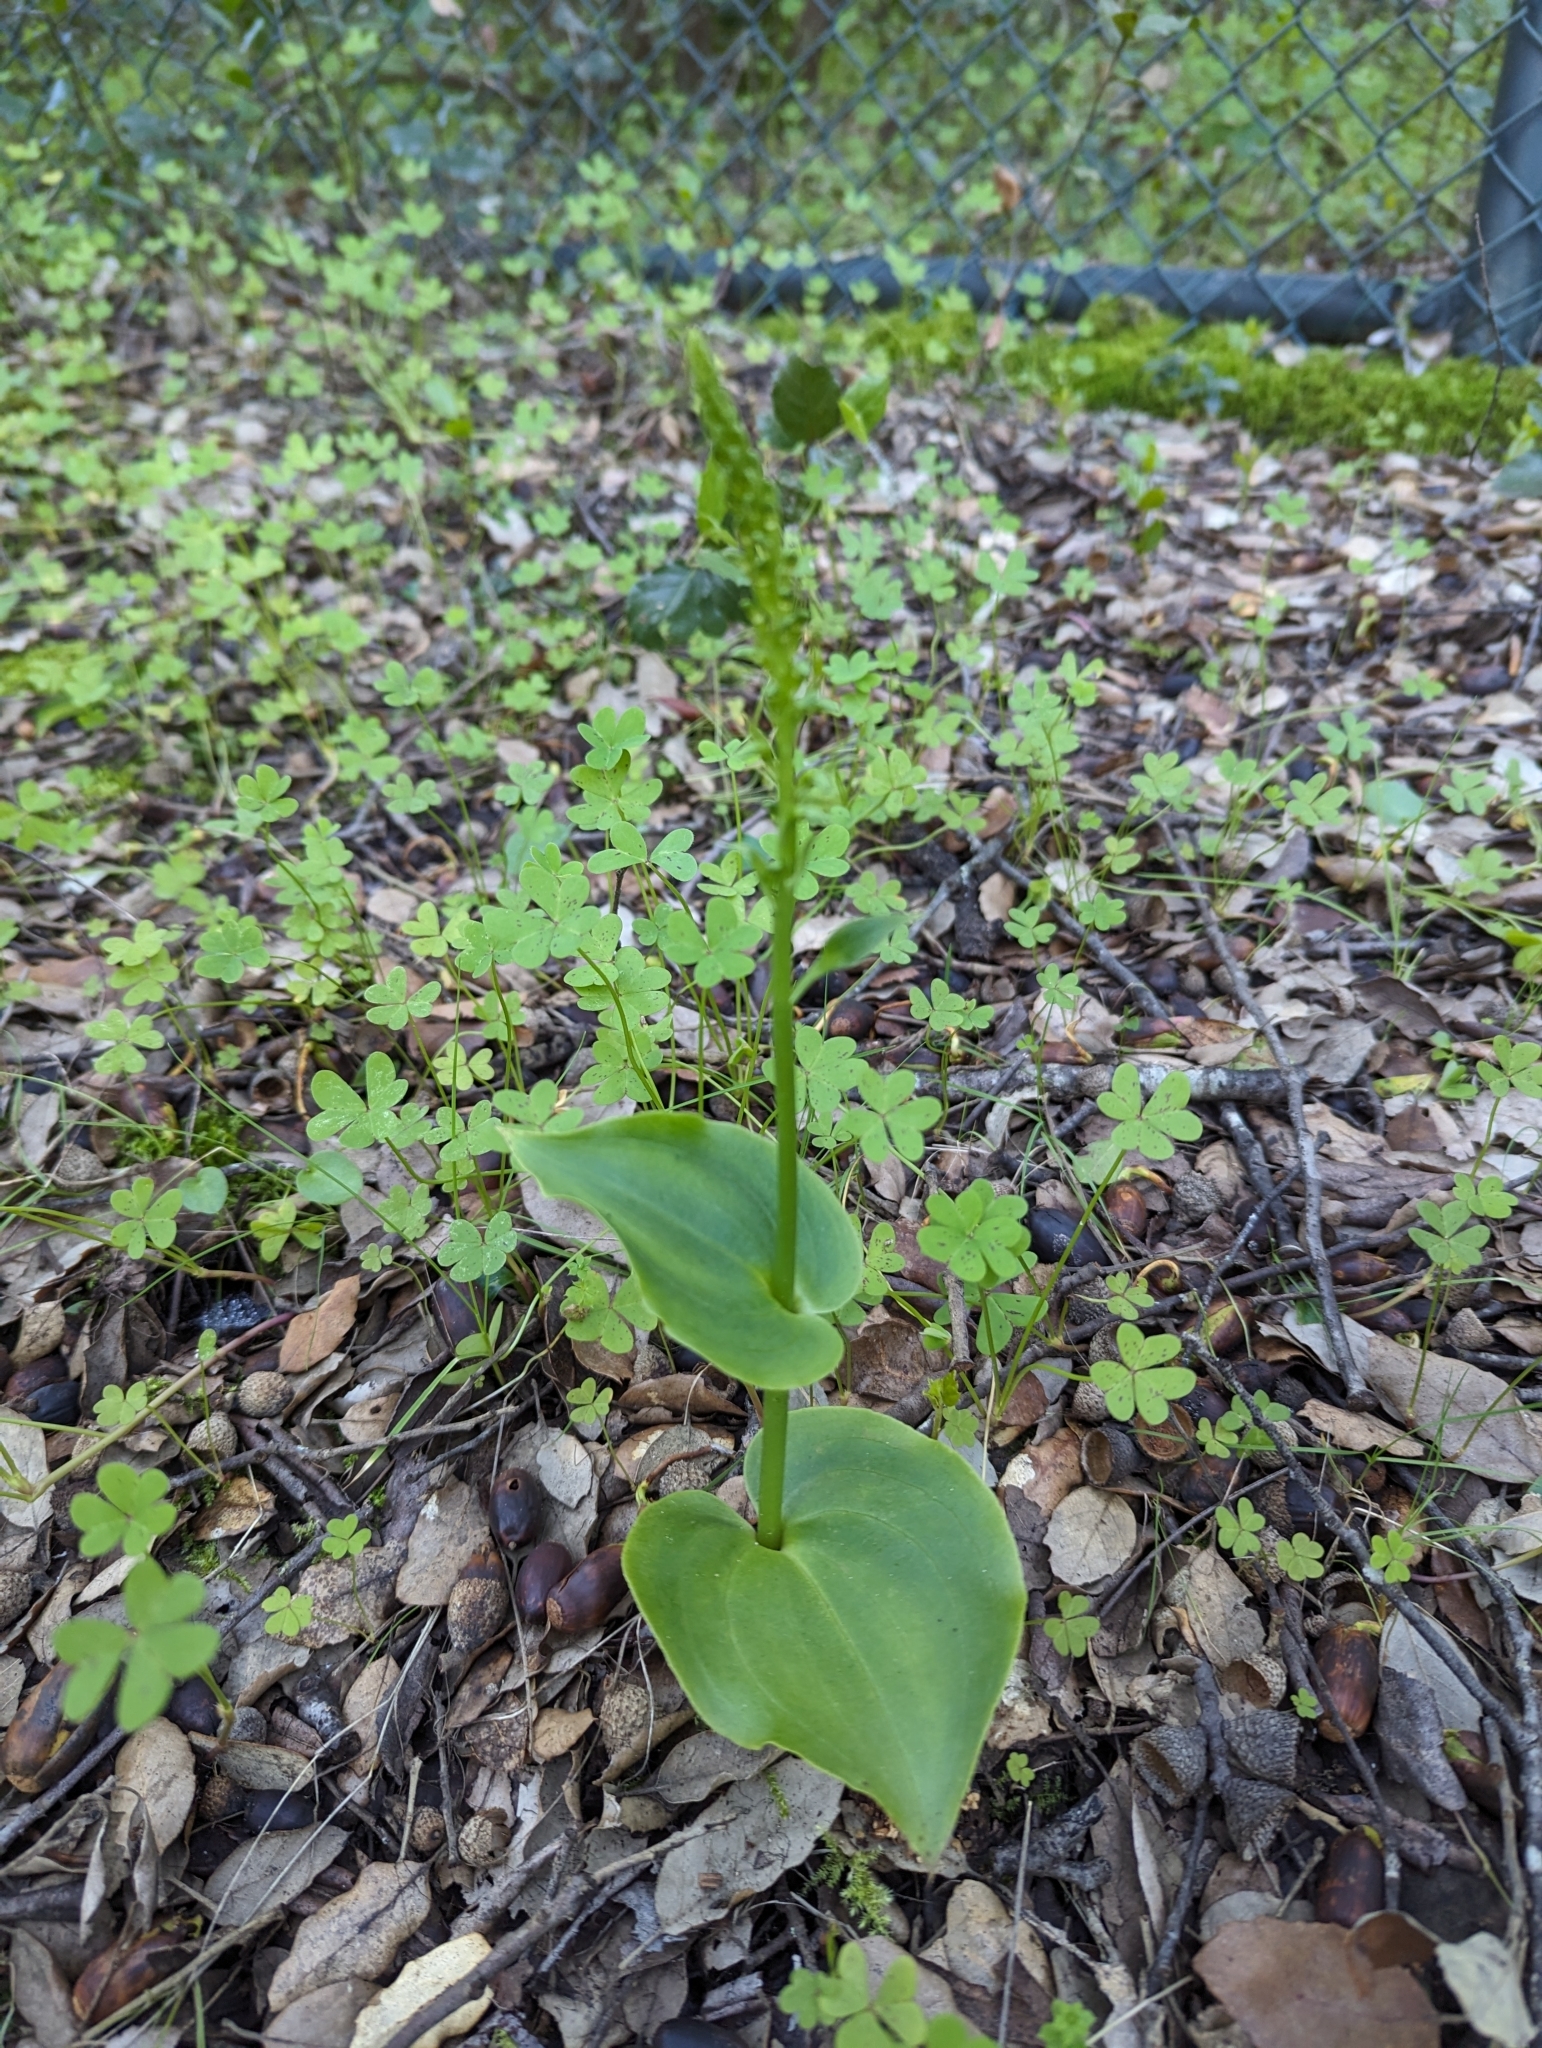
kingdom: Plantae
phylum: Tracheophyta
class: Liliopsida
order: Asparagales
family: Orchidaceae
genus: Gennaria
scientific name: Gennaria diphylla
